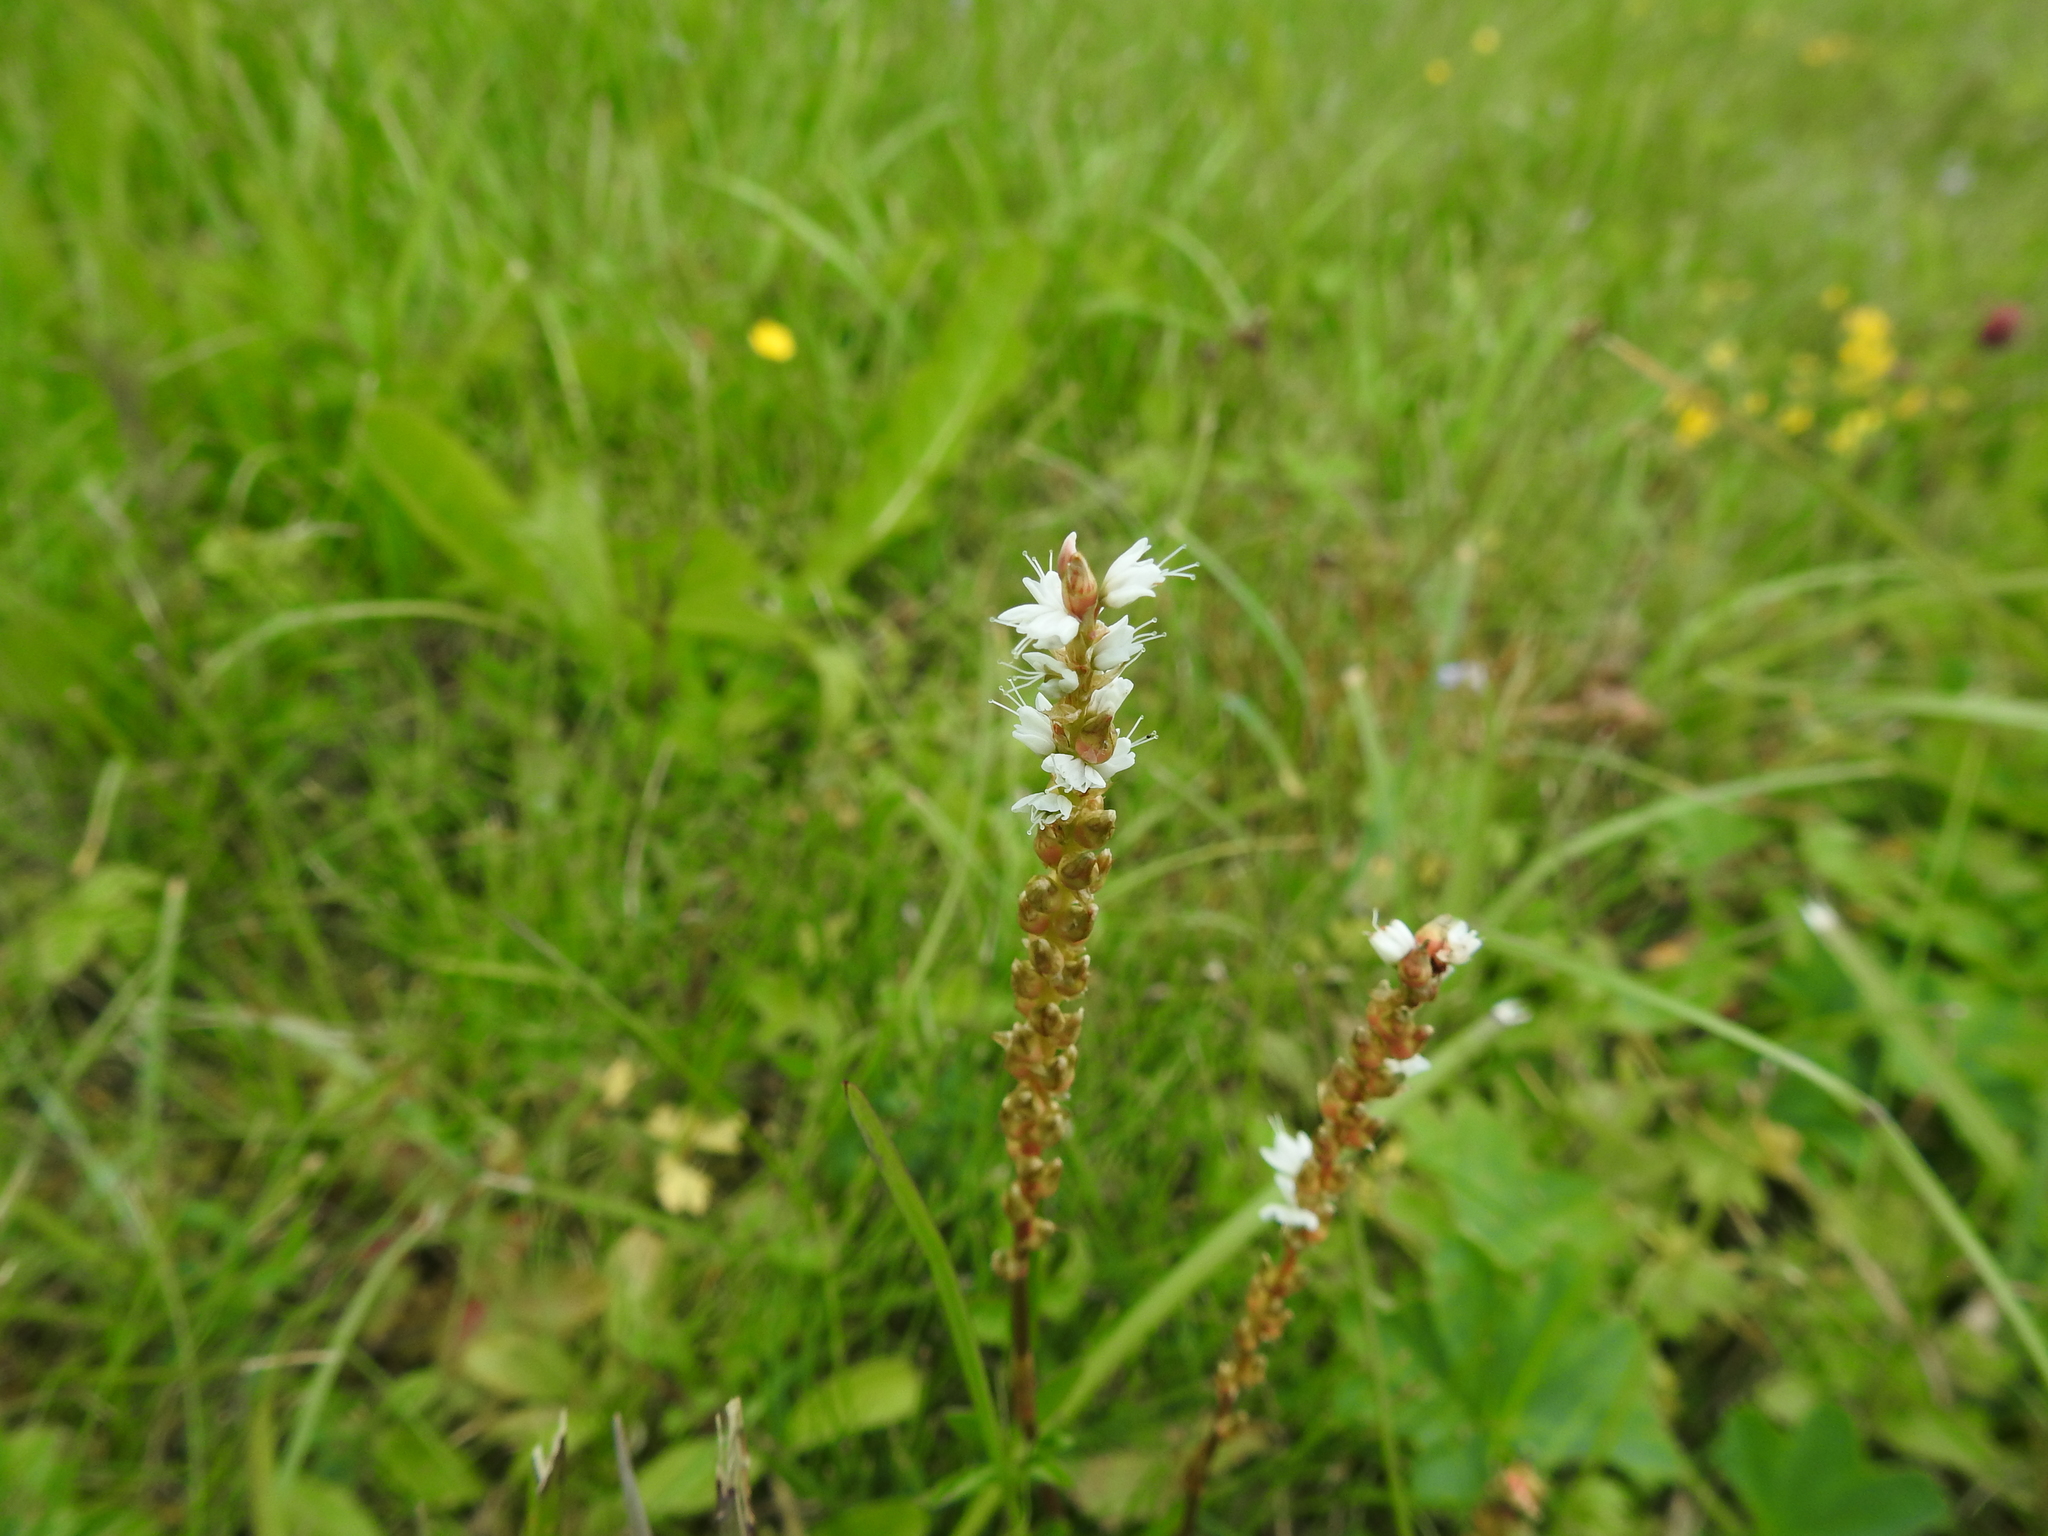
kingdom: Plantae
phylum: Tracheophyta
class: Magnoliopsida
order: Caryophyllales
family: Polygonaceae
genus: Bistorta
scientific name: Bistorta vivipara
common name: Alpine bistort
